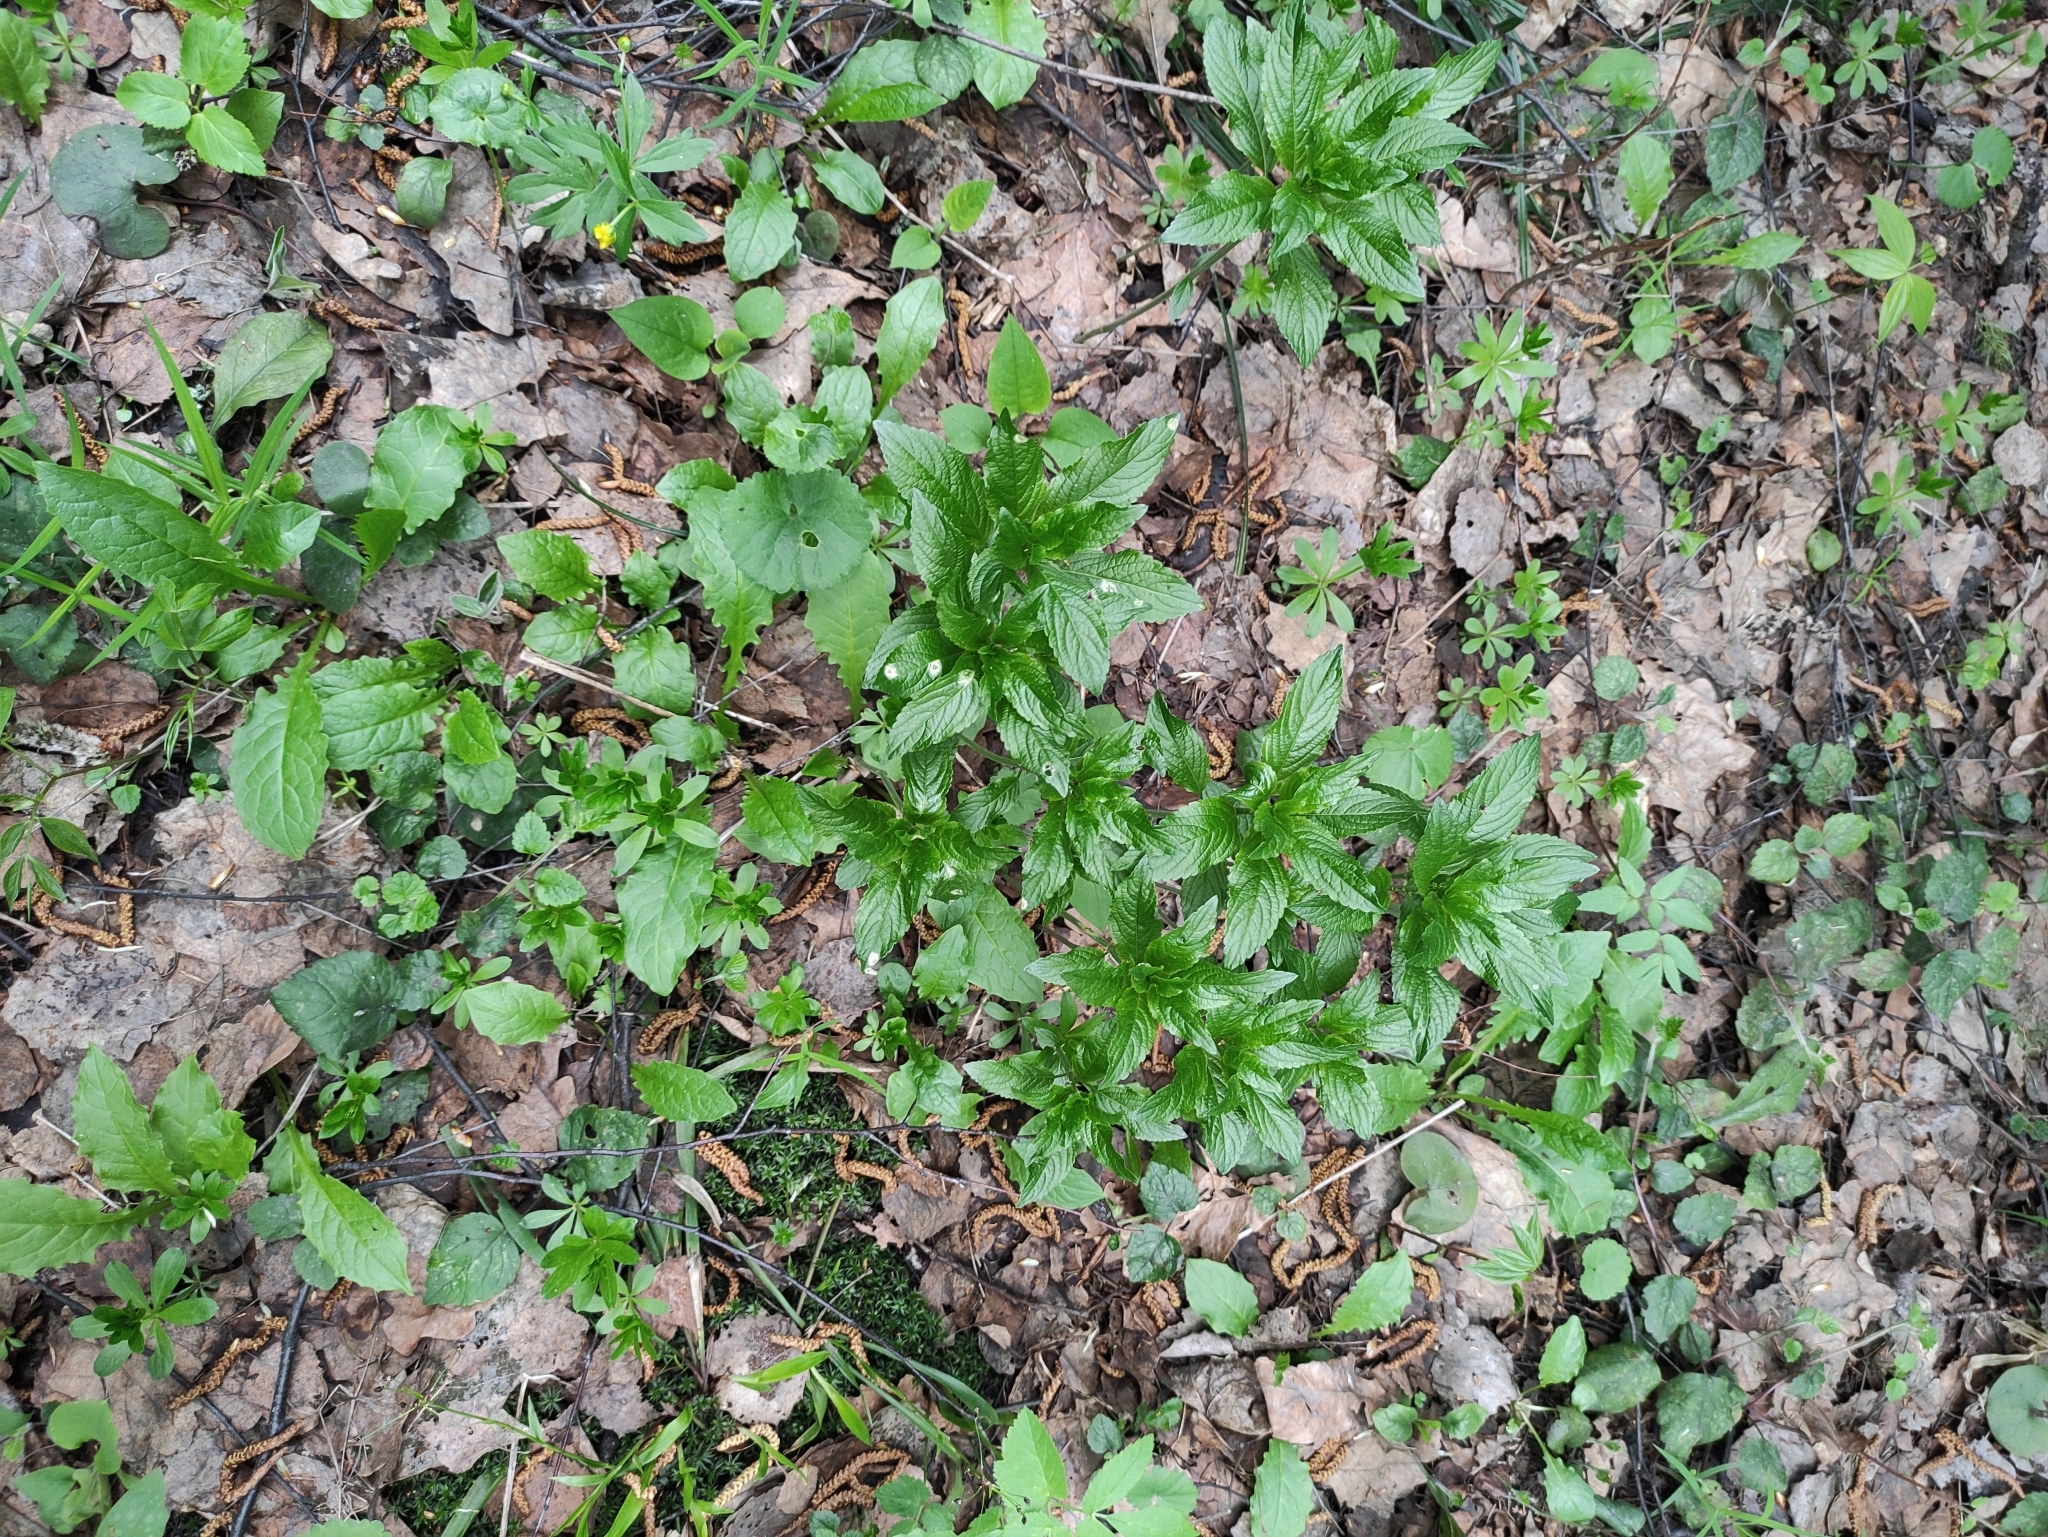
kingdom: Plantae
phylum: Tracheophyta
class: Magnoliopsida
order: Malpighiales
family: Euphorbiaceae
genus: Mercurialis
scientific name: Mercurialis perennis
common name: Dog mercury
